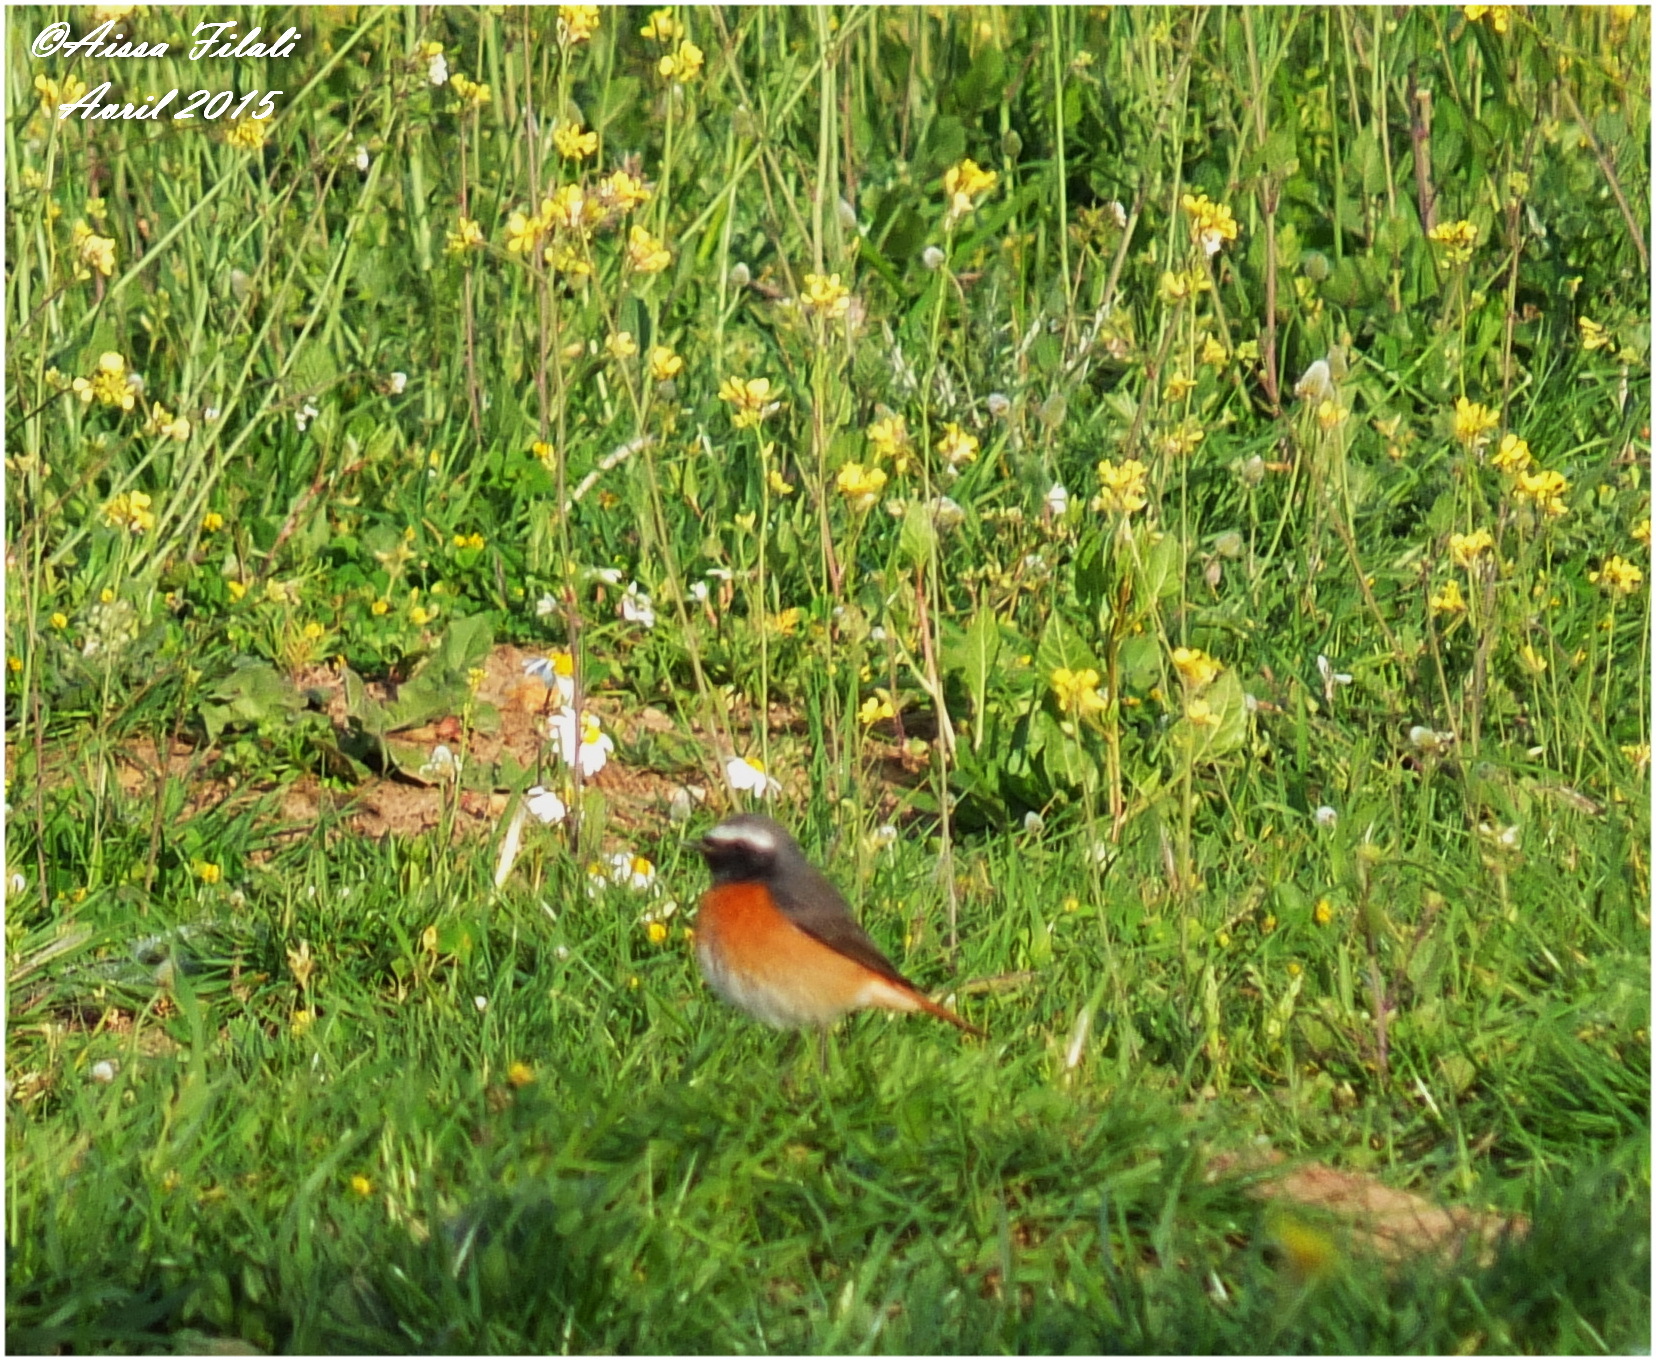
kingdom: Animalia
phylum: Chordata
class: Aves
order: Passeriformes
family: Muscicapidae
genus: Phoenicurus
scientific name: Phoenicurus phoenicurus
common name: Common redstart
